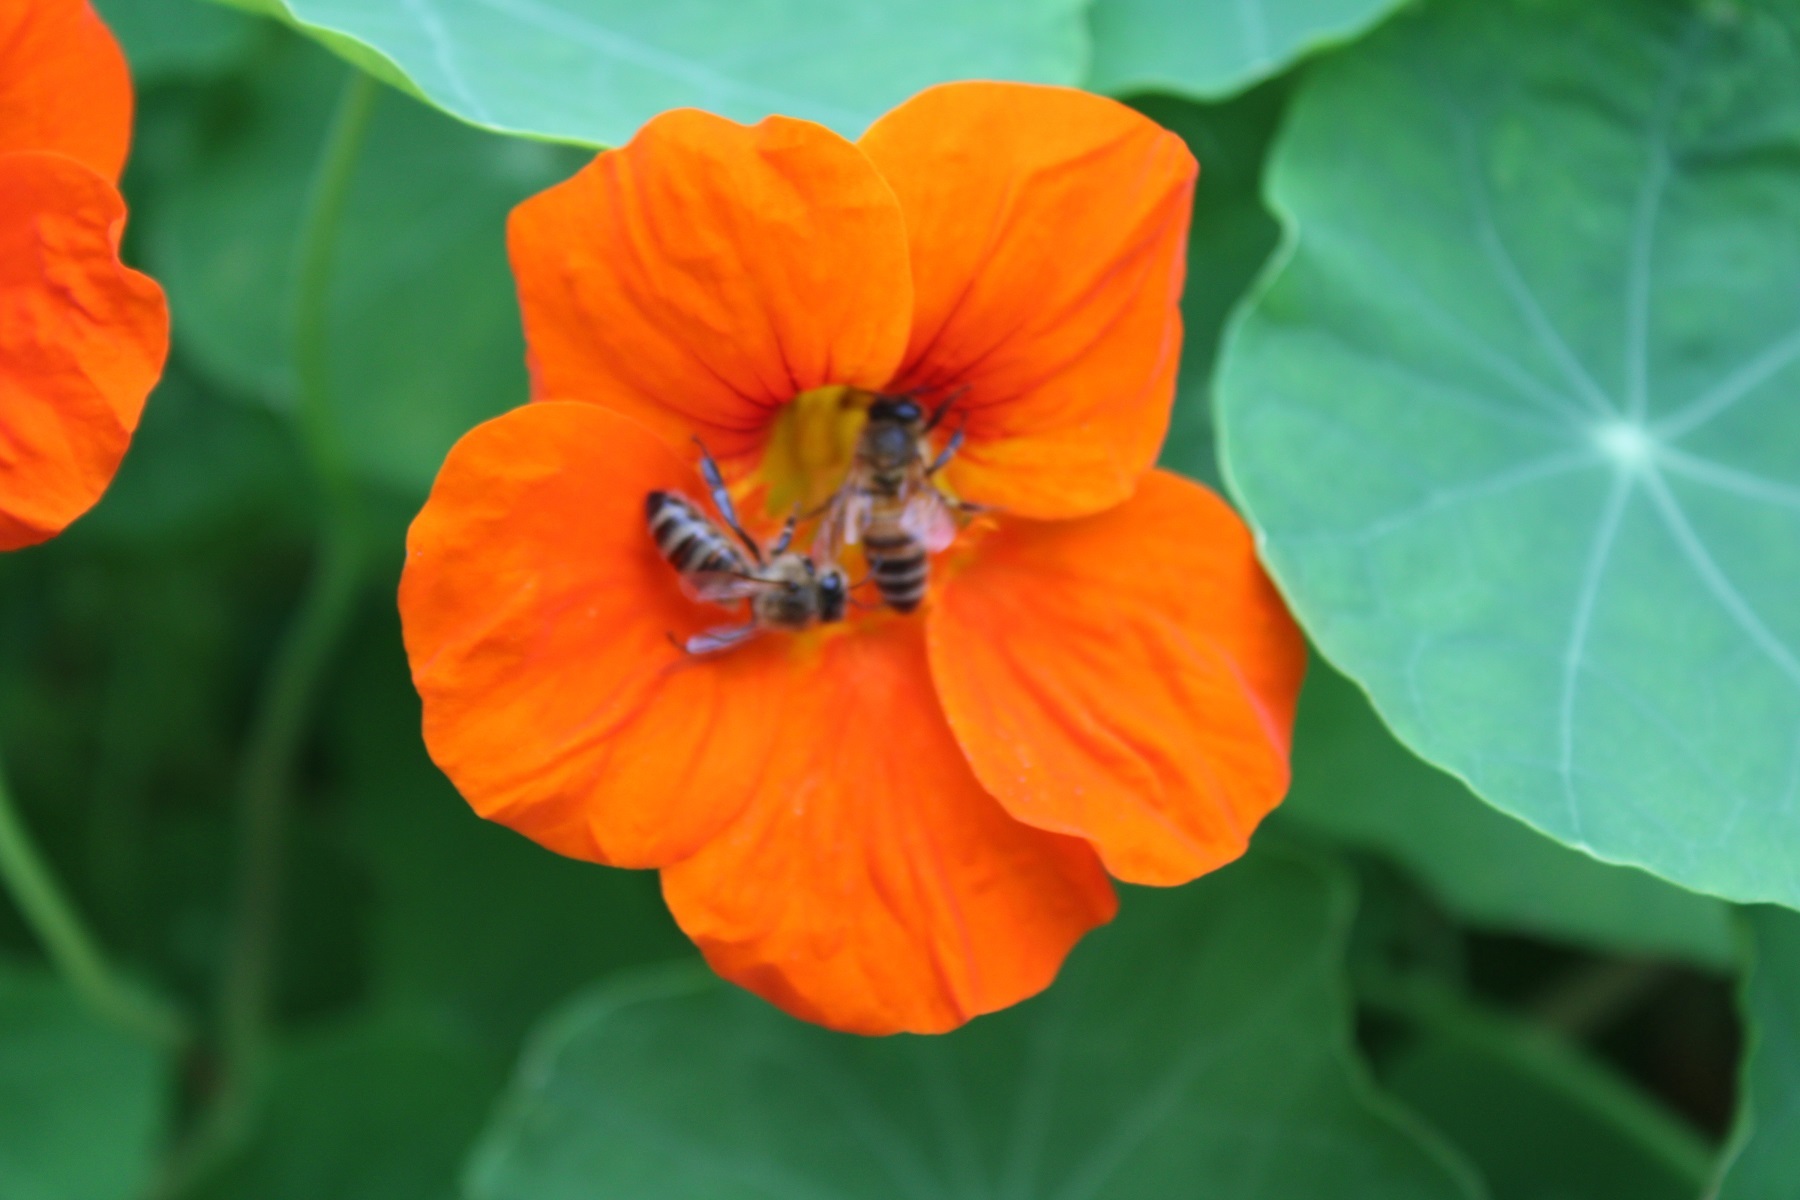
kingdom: Animalia
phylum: Arthropoda
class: Insecta
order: Hymenoptera
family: Apidae
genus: Apis
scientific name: Apis mellifera
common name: Honey bee
